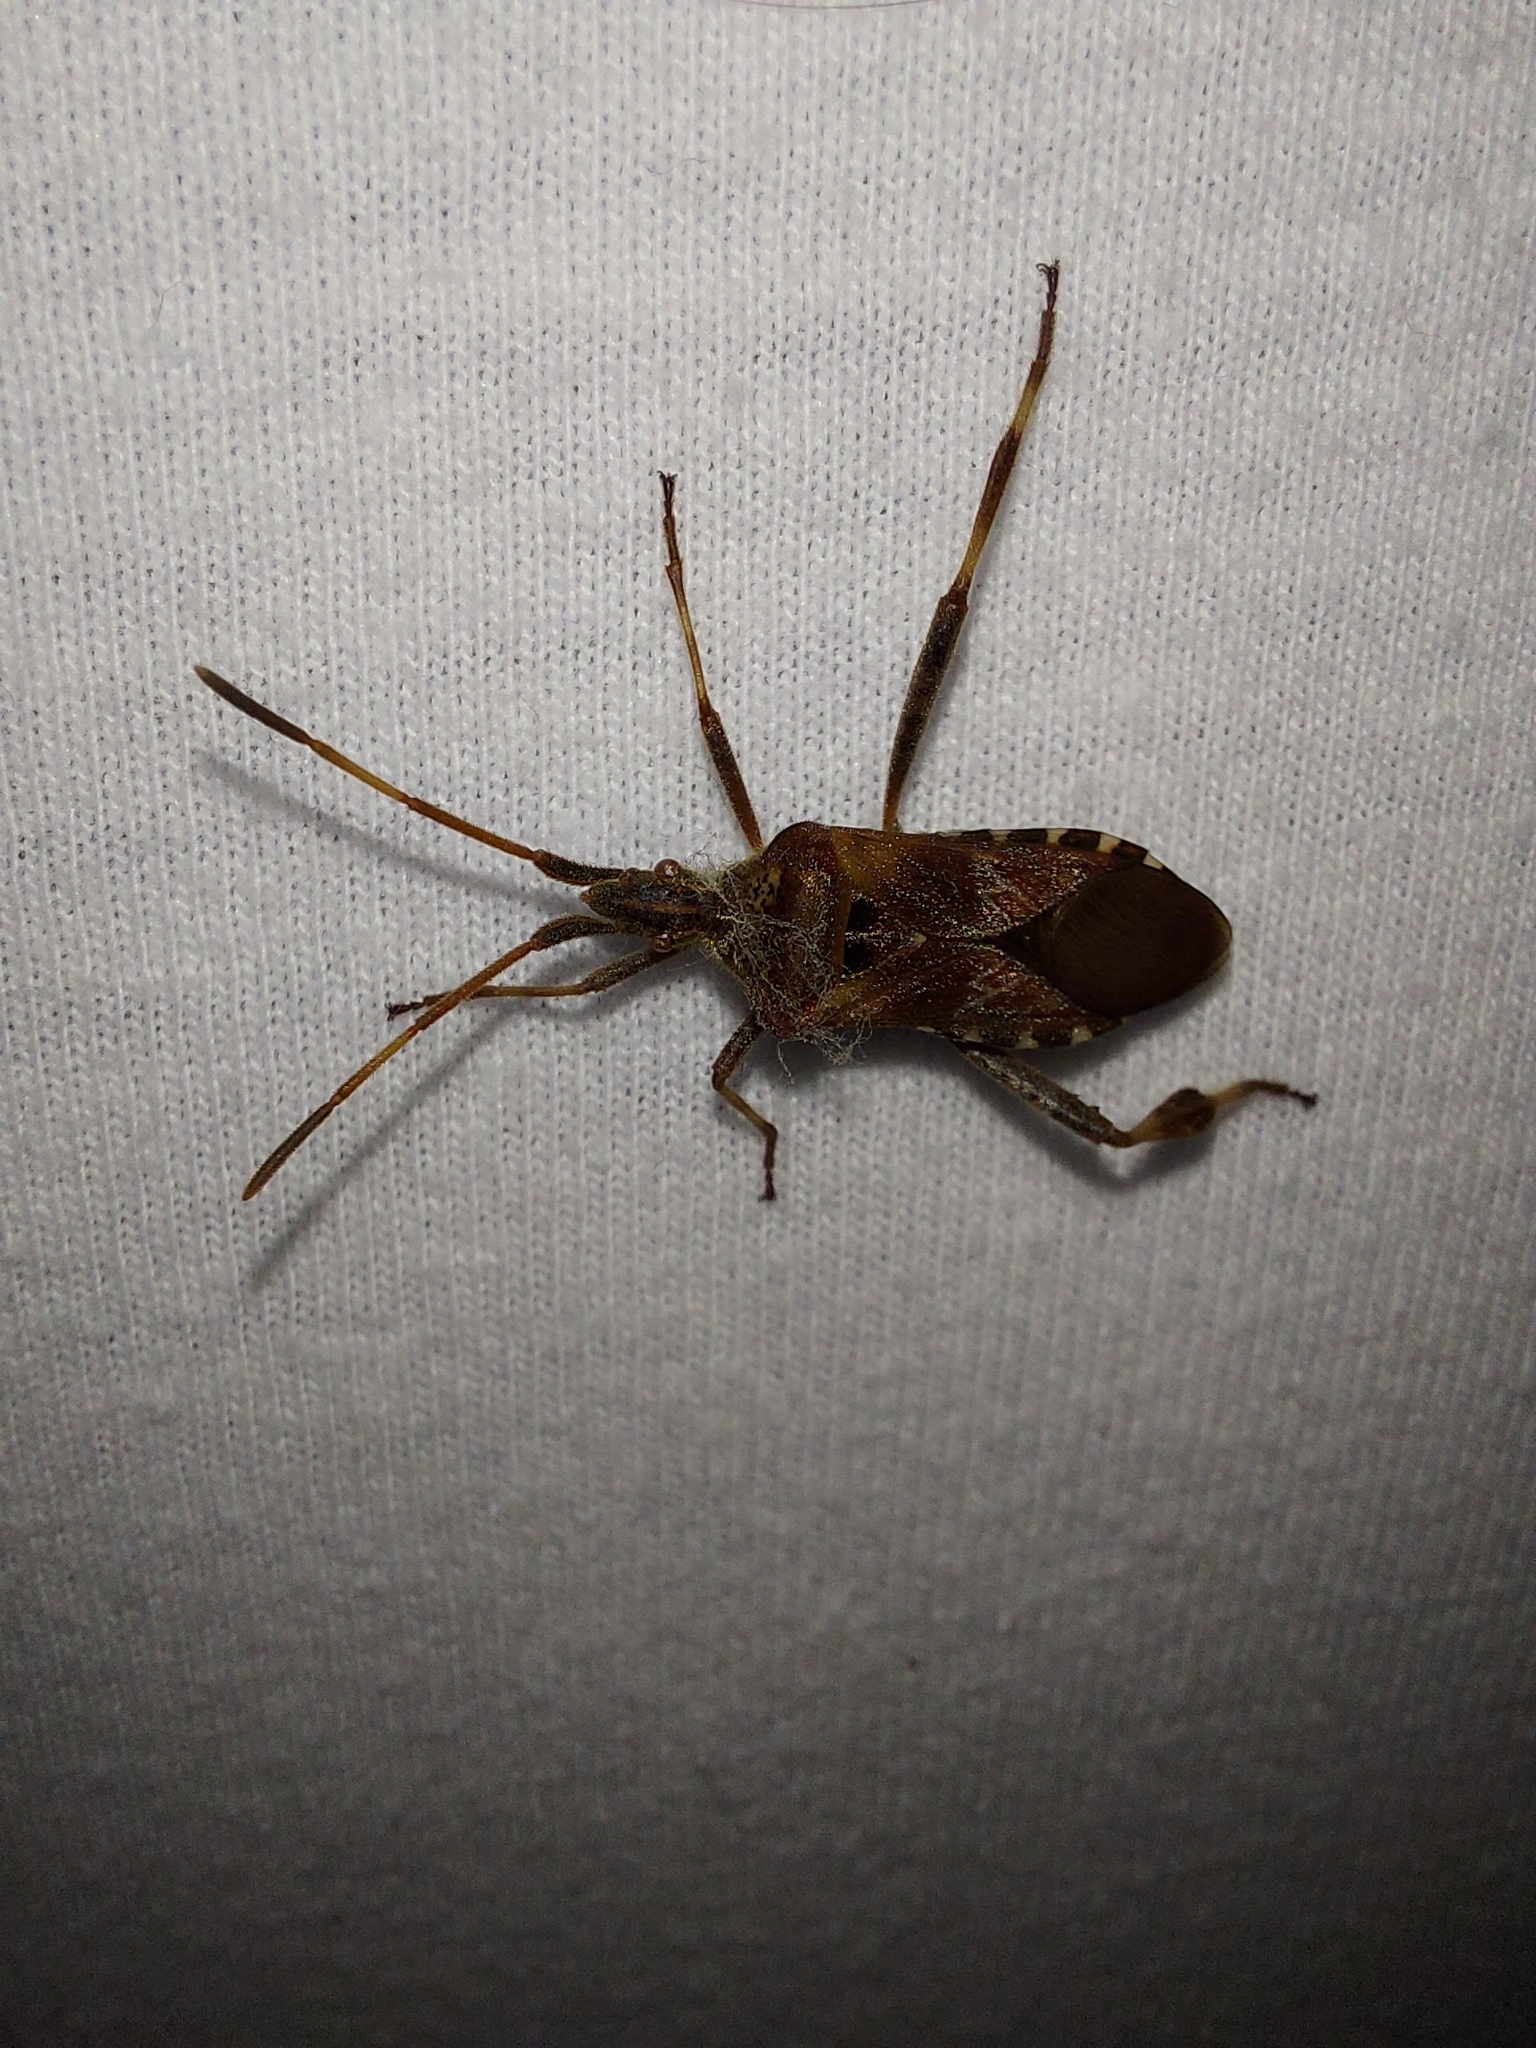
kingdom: Animalia
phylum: Arthropoda
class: Insecta
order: Hemiptera
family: Coreidae
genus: Leptoglossus
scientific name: Leptoglossus occidentalis
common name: Western conifer-seed bug
